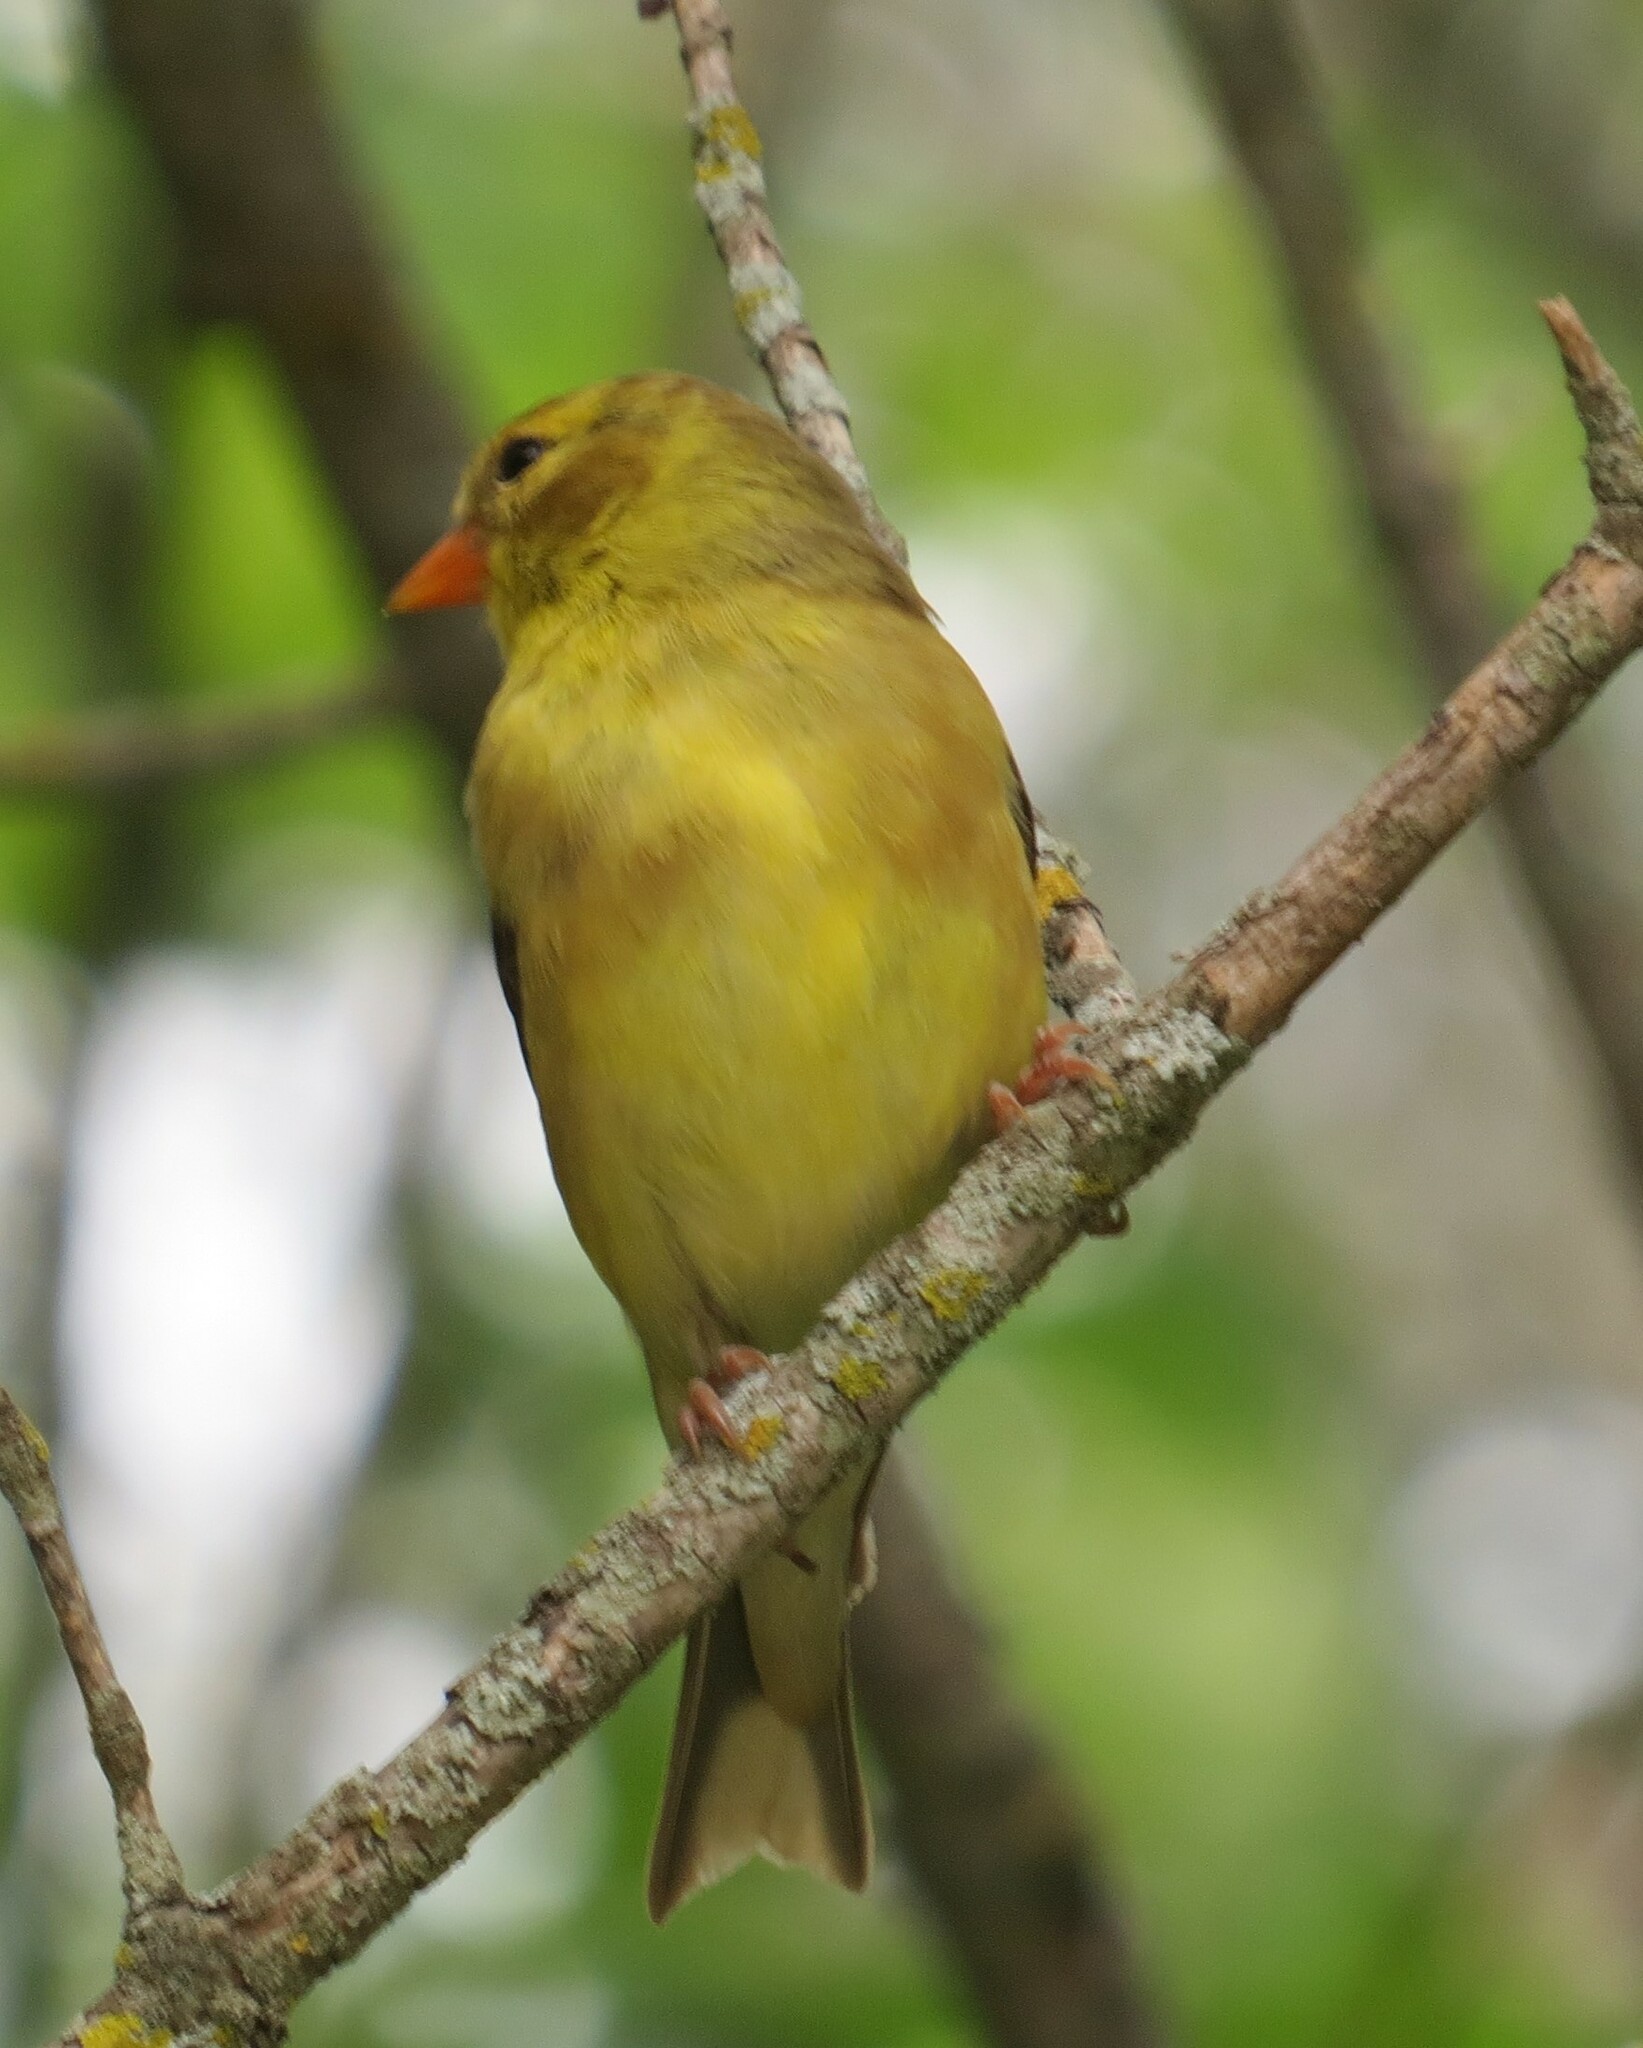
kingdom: Animalia
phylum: Chordata
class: Aves
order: Passeriformes
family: Fringillidae
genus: Spinus
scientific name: Spinus tristis
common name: American goldfinch
